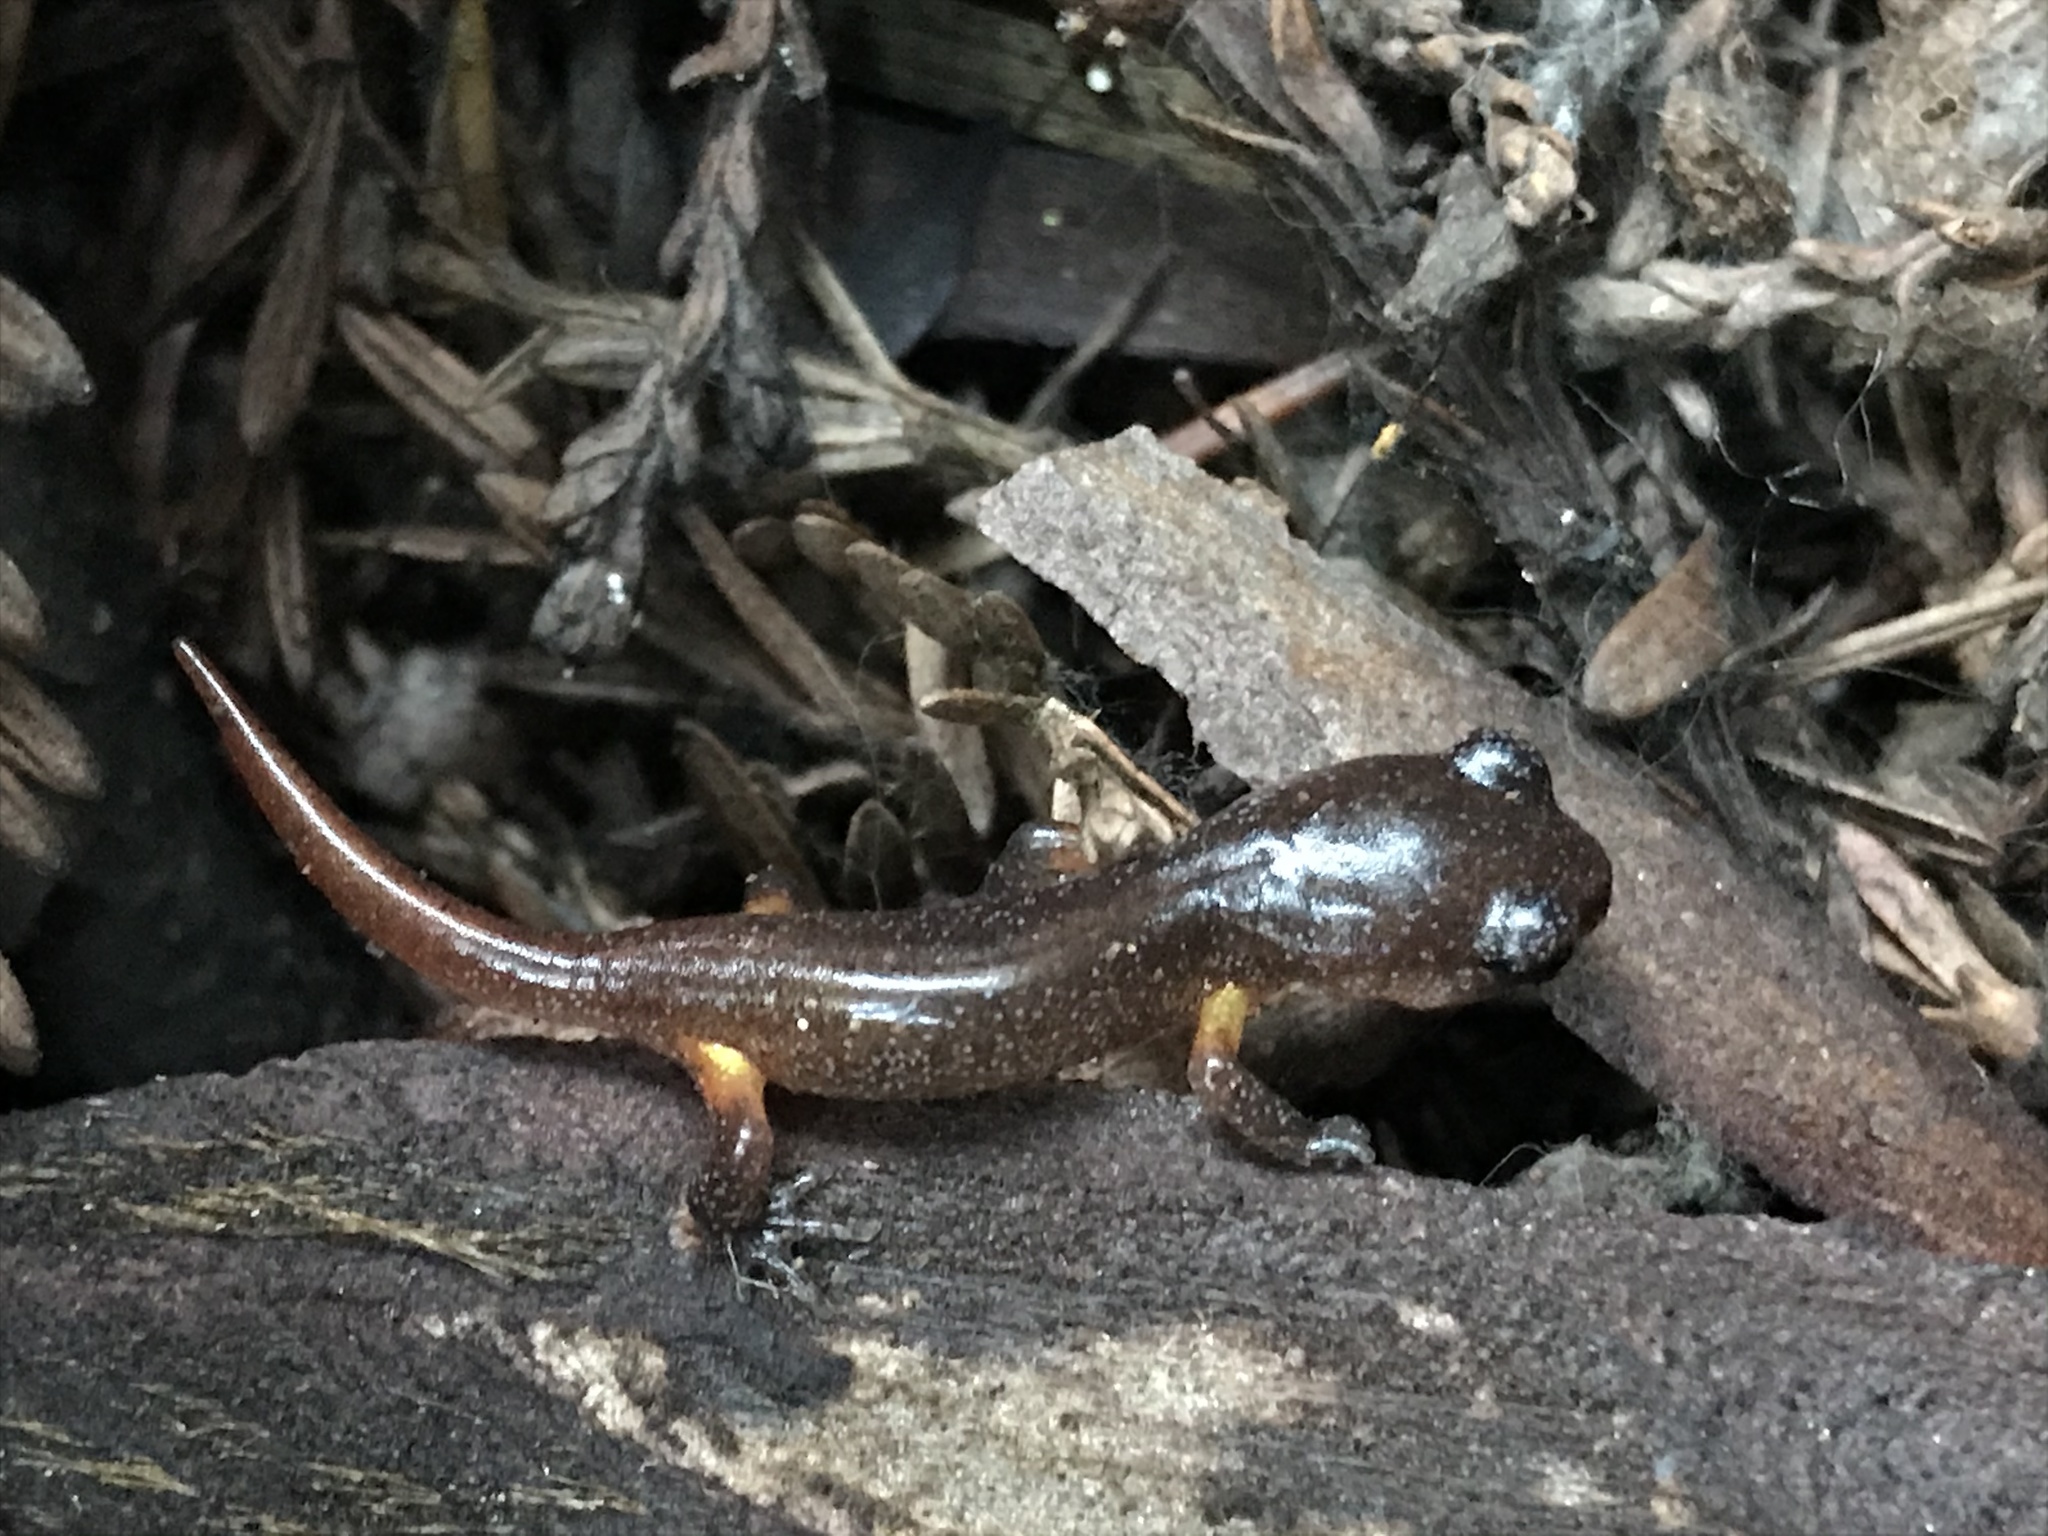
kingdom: Animalia
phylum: Chordata
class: Amphibia
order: Caudata
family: Plethodontidae
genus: Ensatina
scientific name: Ensatina eschscholtzii
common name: Ensatina
